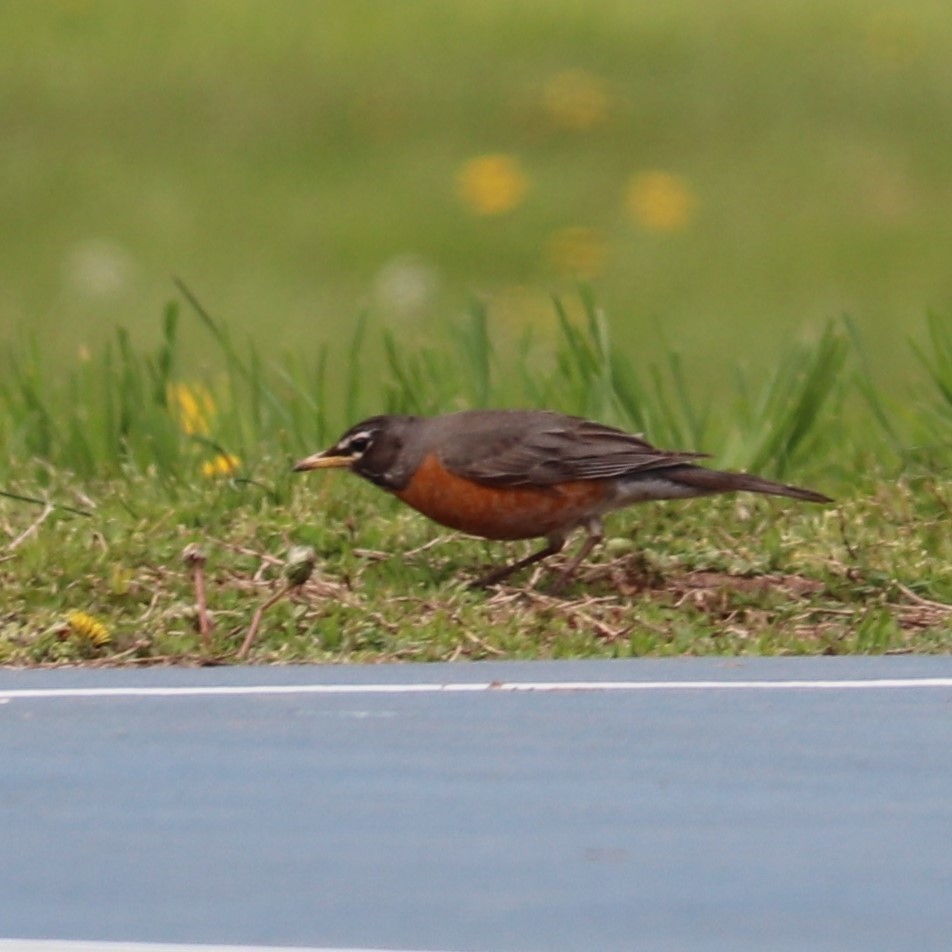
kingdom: Animalia
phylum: Chordata
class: Aves
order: Passeriformes
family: Turdidae
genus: Turdus
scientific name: Turdus migratorius
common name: American robin
